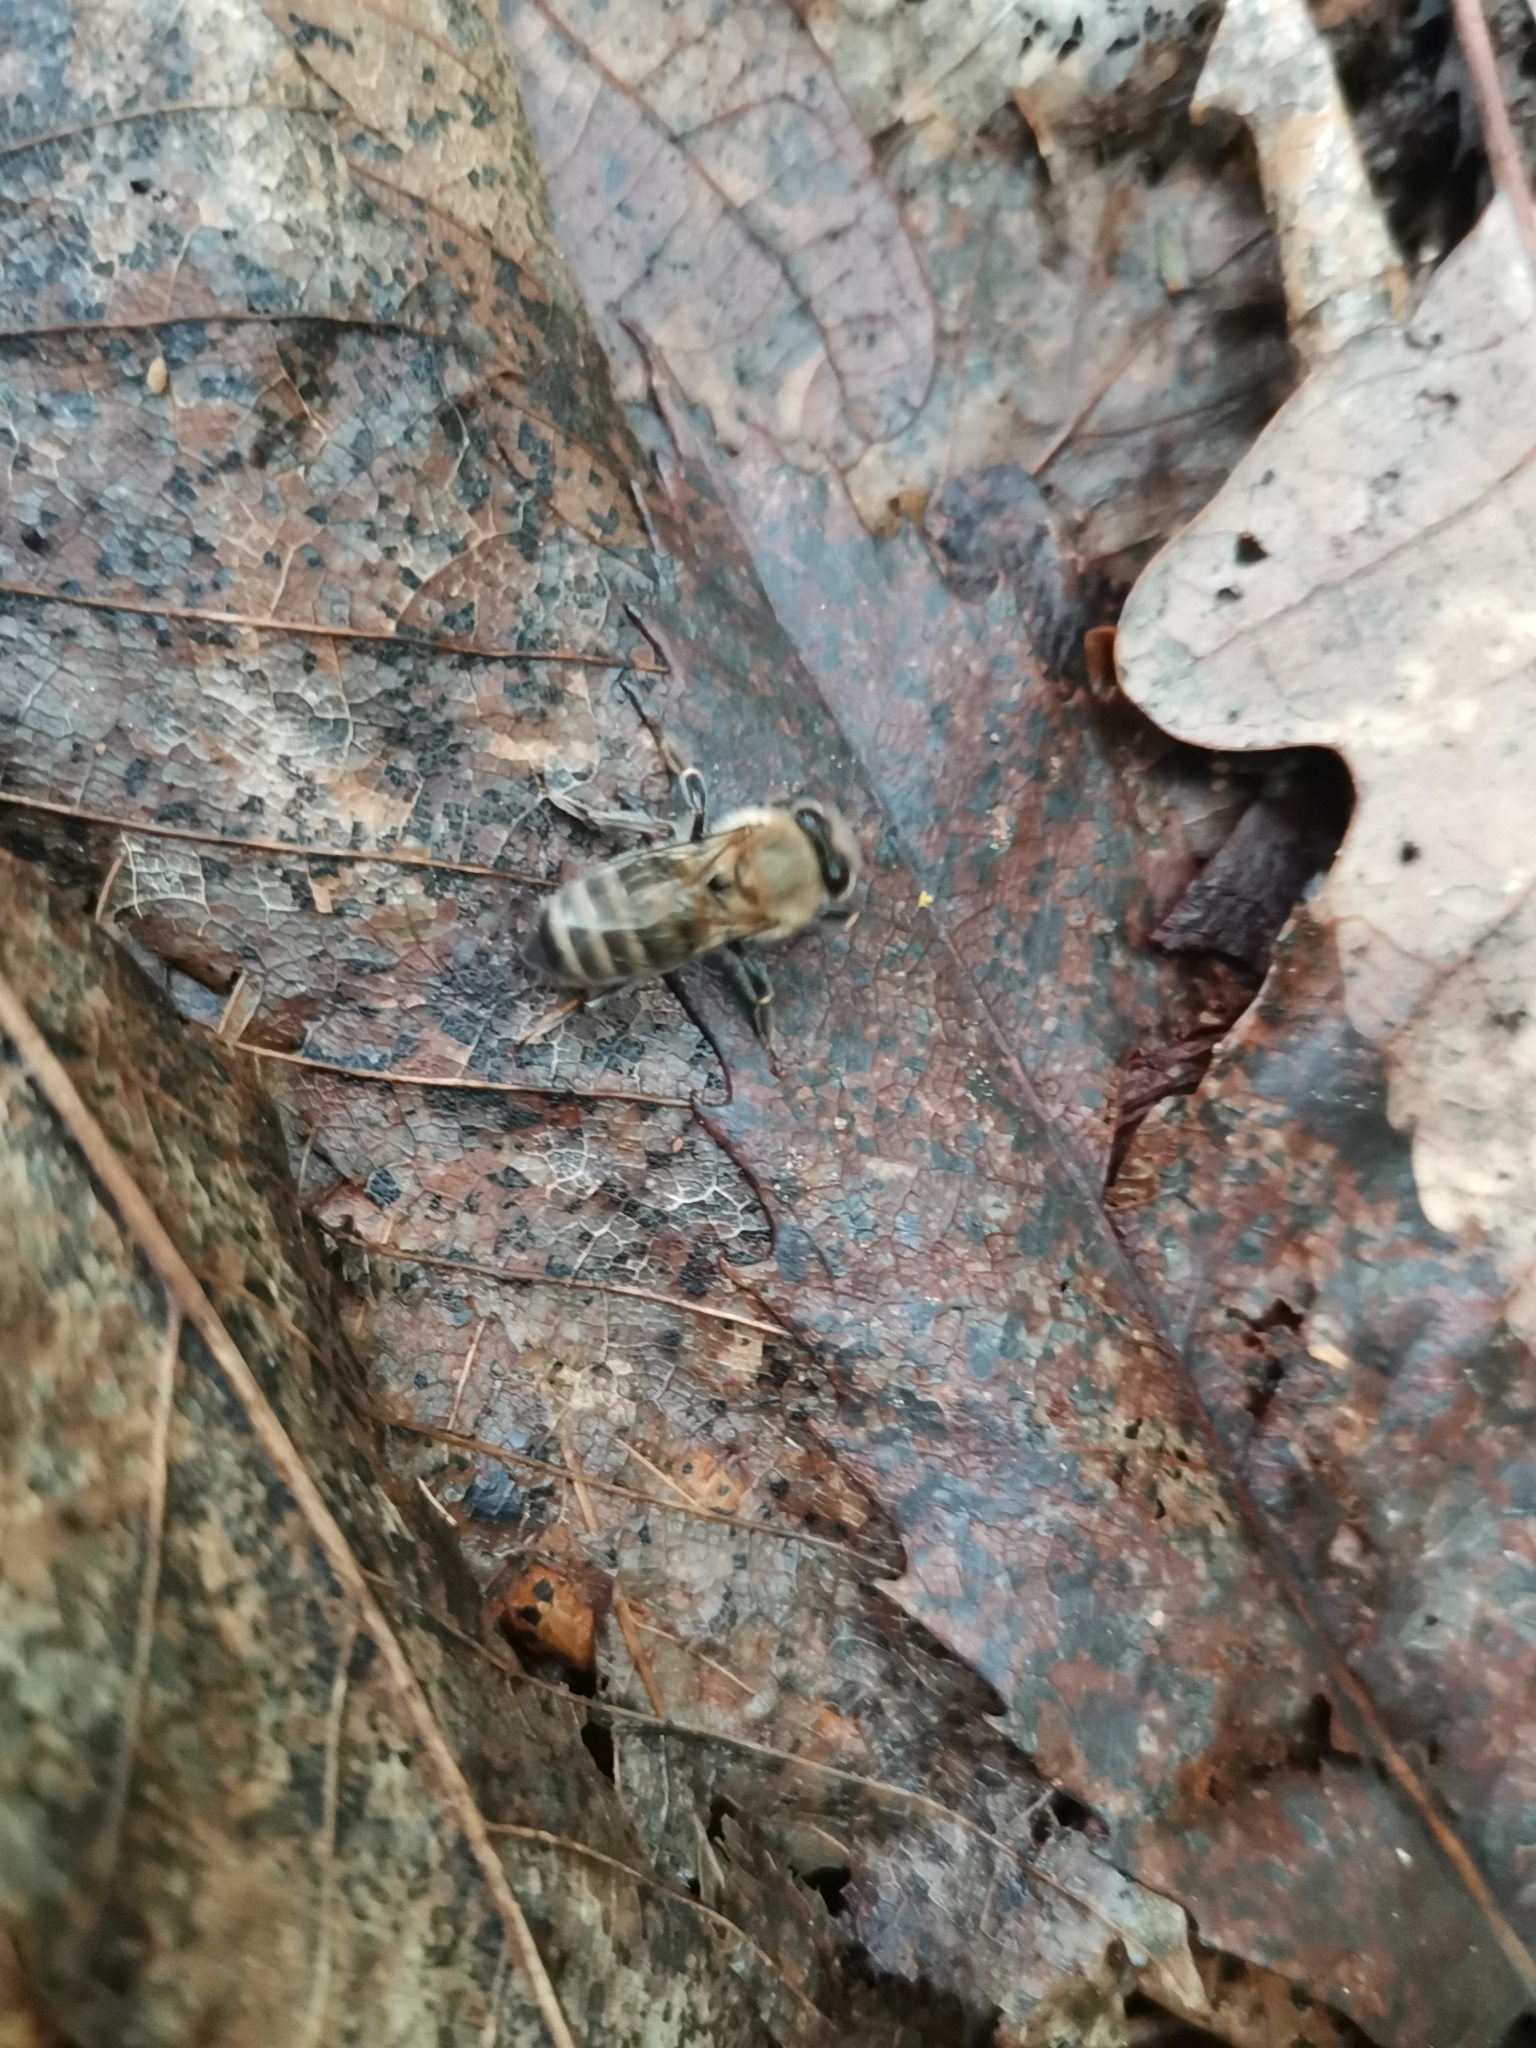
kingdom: Animalia
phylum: Arthropoda
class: Insecta
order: Hymenoptera
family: Apidae
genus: Apis
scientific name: Apis mellifera
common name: Honey bee
